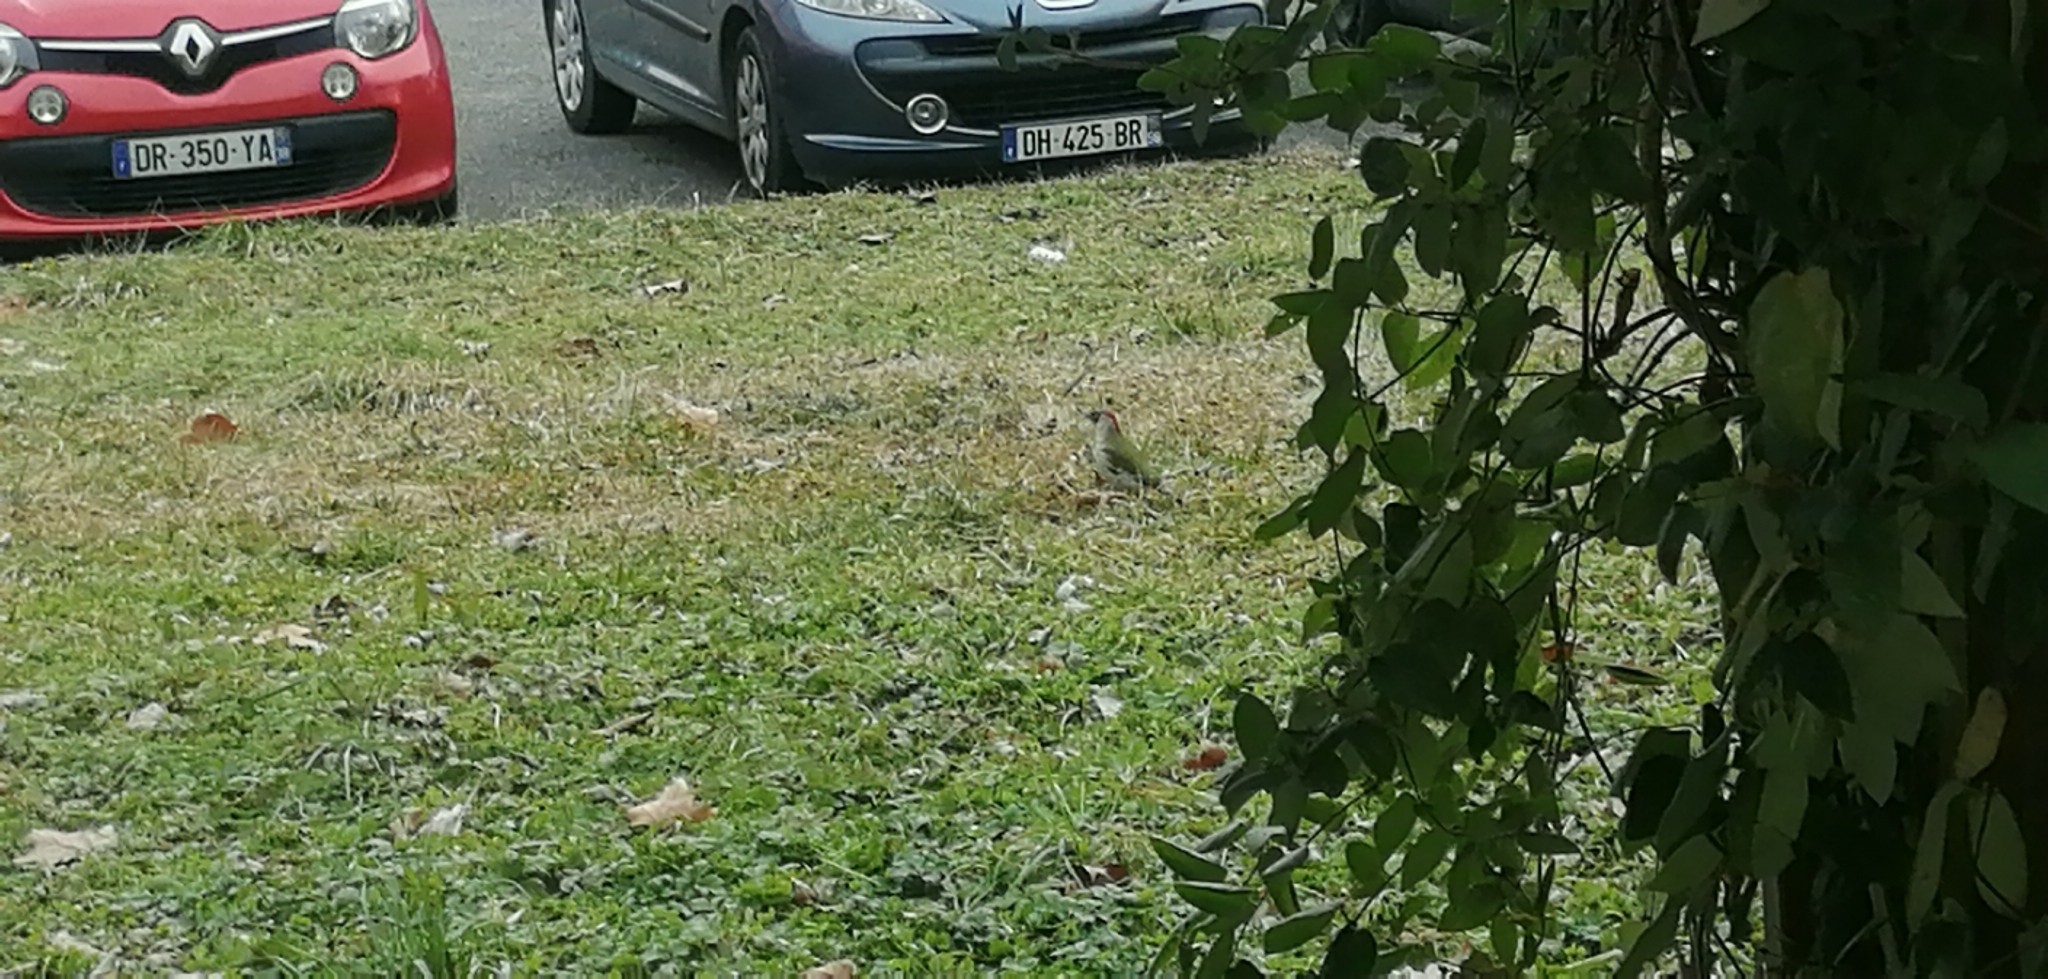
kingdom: Animalia
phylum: Chordata
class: Aves
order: Piciformes
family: Picidae
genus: Picus
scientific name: Picus viridis
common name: European green woodpecker
